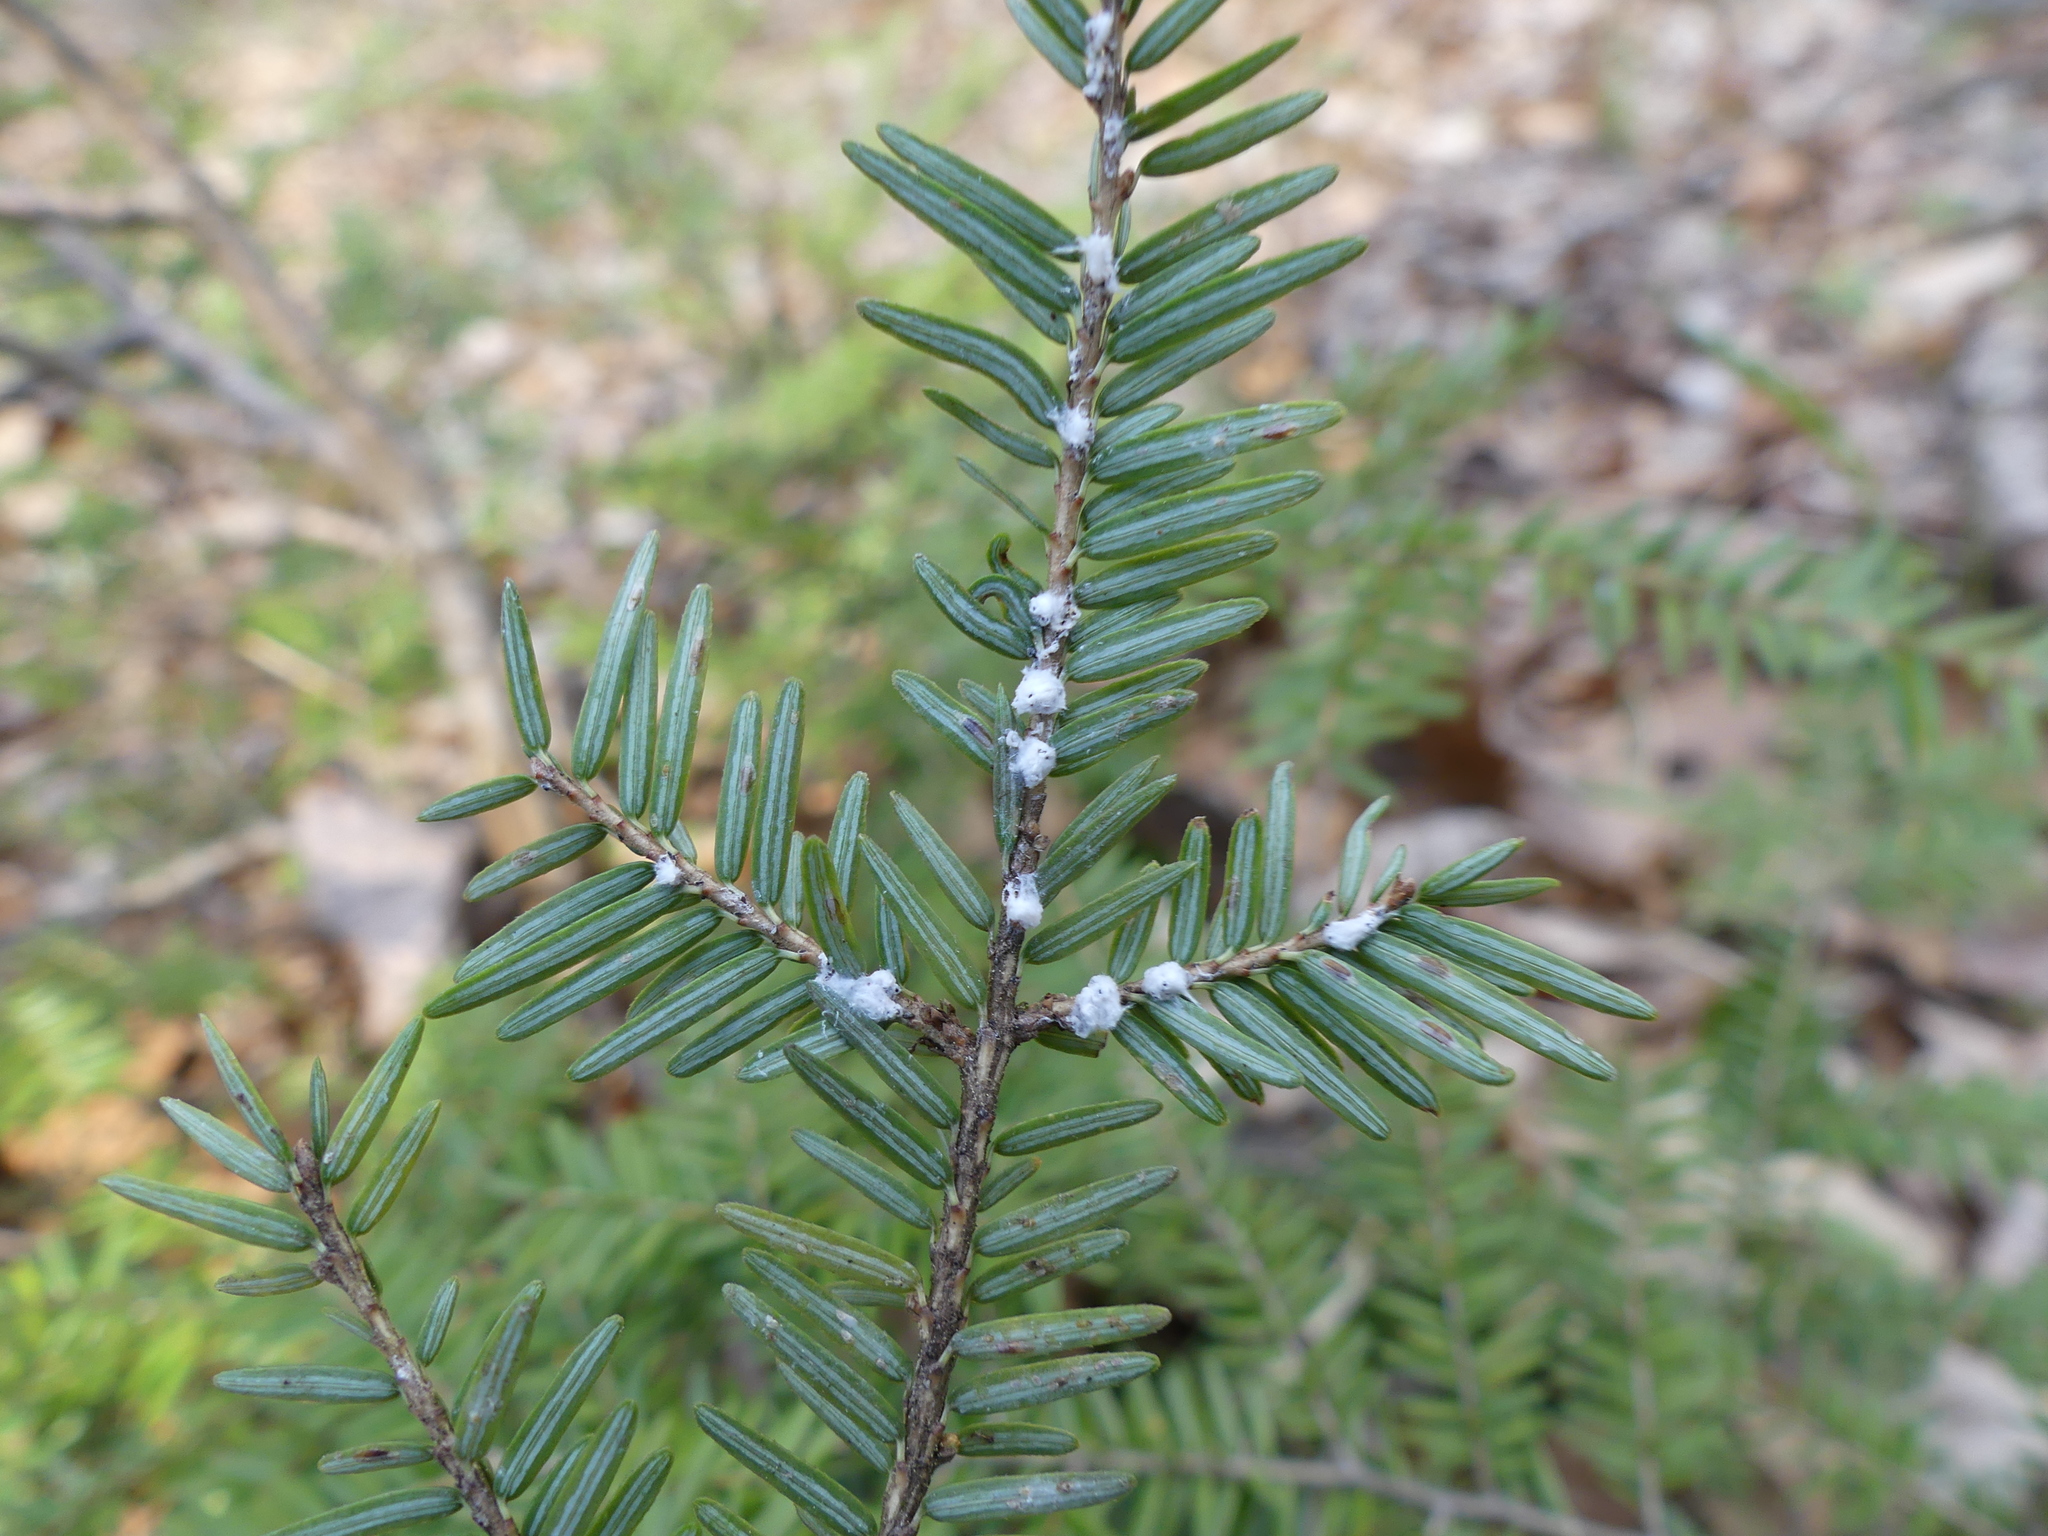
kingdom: Animalia
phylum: Arthropoda
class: Insecta
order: Hemiptera
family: Adelgidae
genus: Adelges
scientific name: Adelges tsugae
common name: Hemlock woolly adelgid
